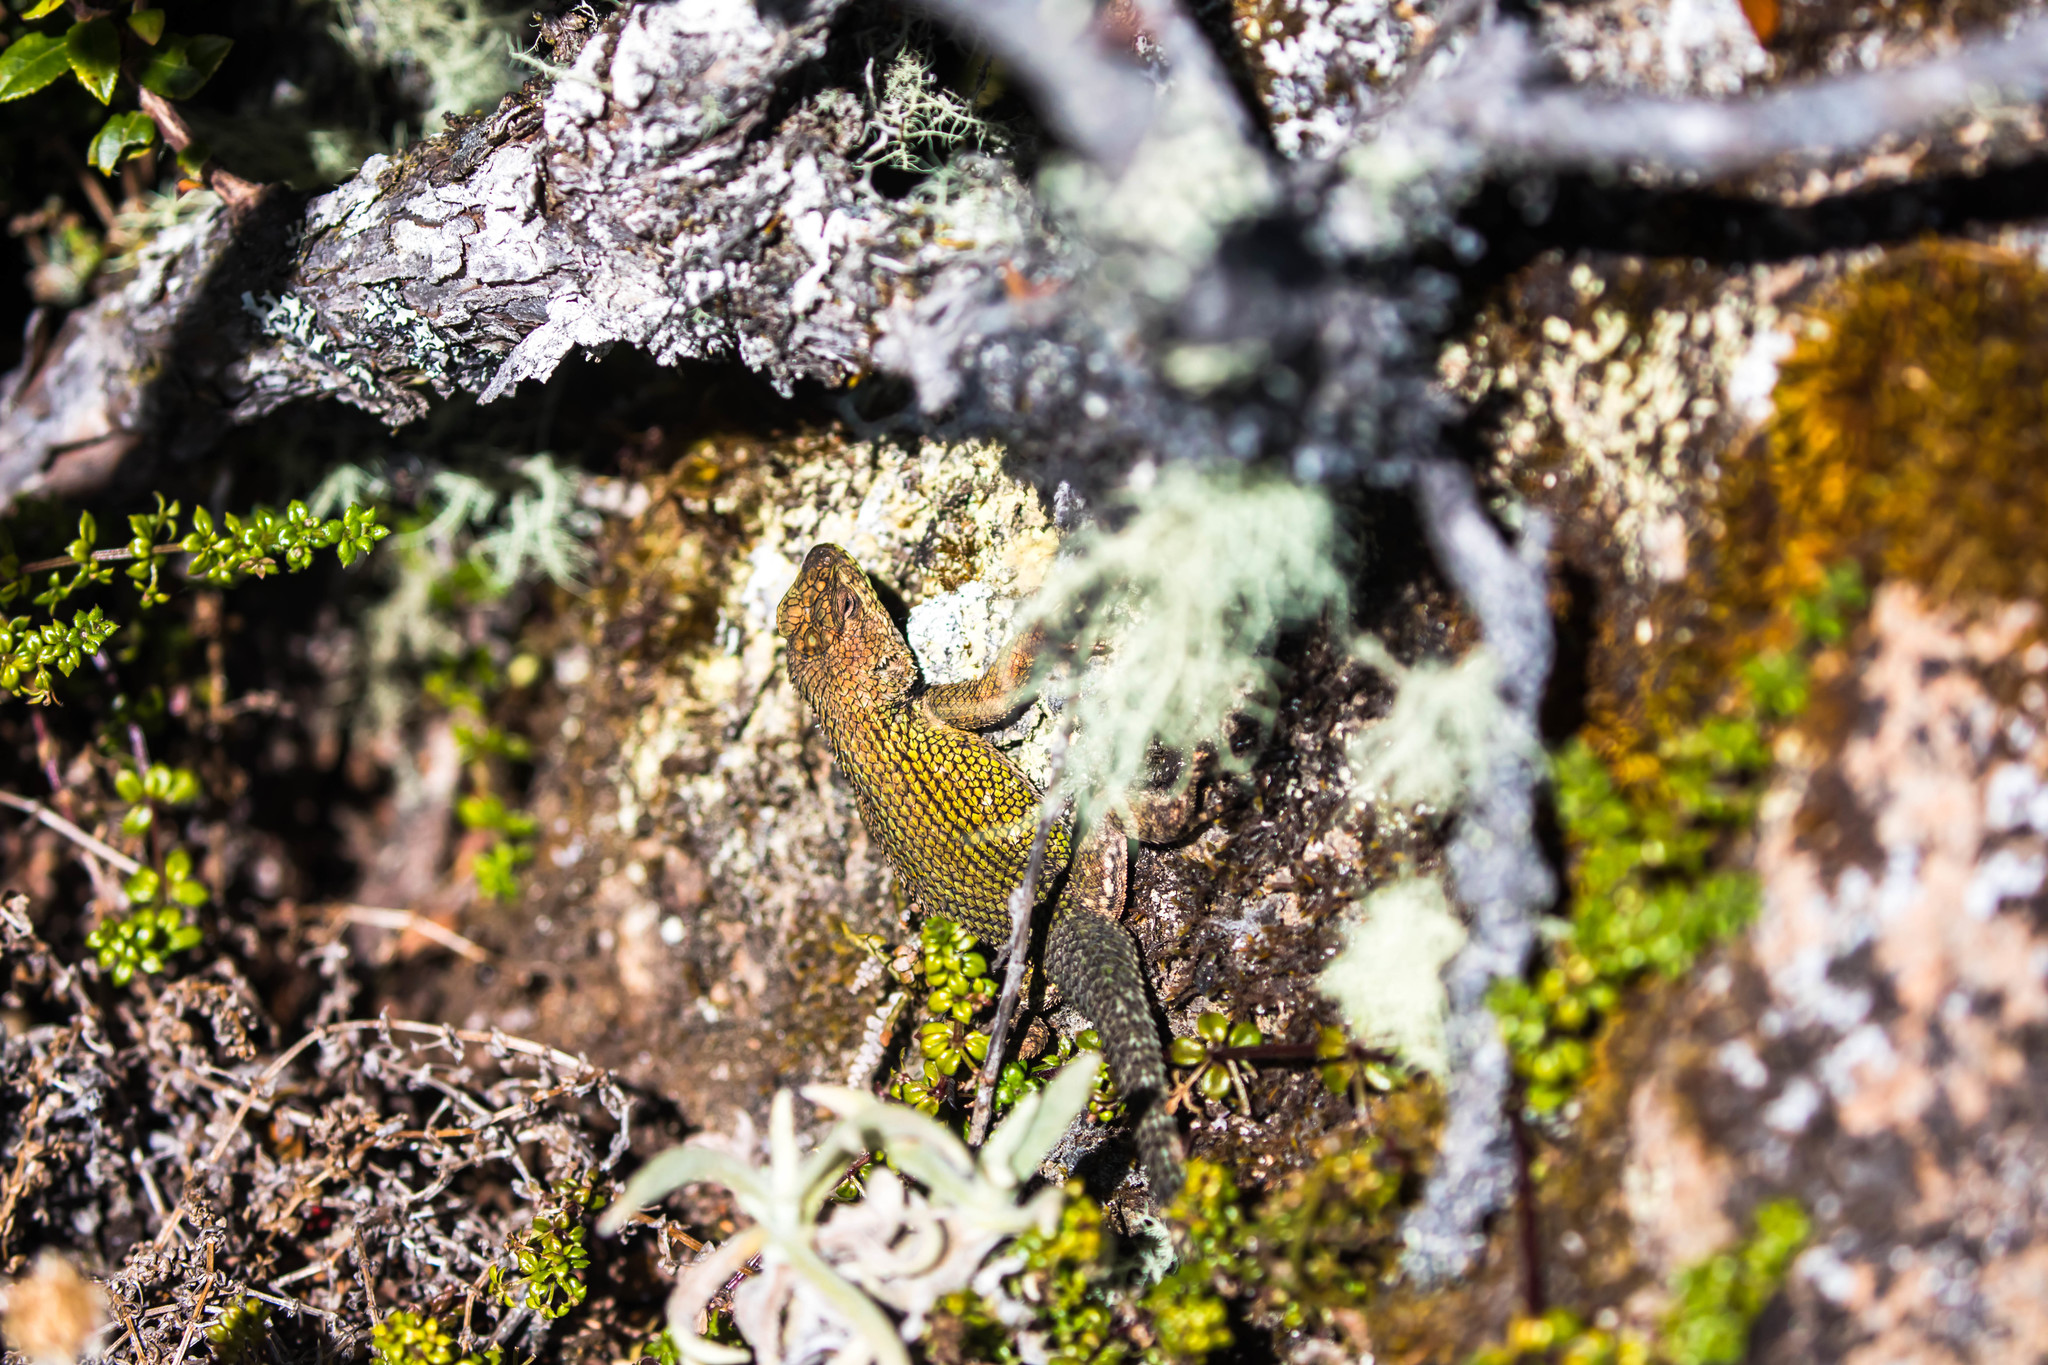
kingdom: Animalia
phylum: Chordata
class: Squamata
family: Phrynosomatidae
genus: Sceloporus
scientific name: Sceloporus malachiticus
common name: Green spiny lizard
